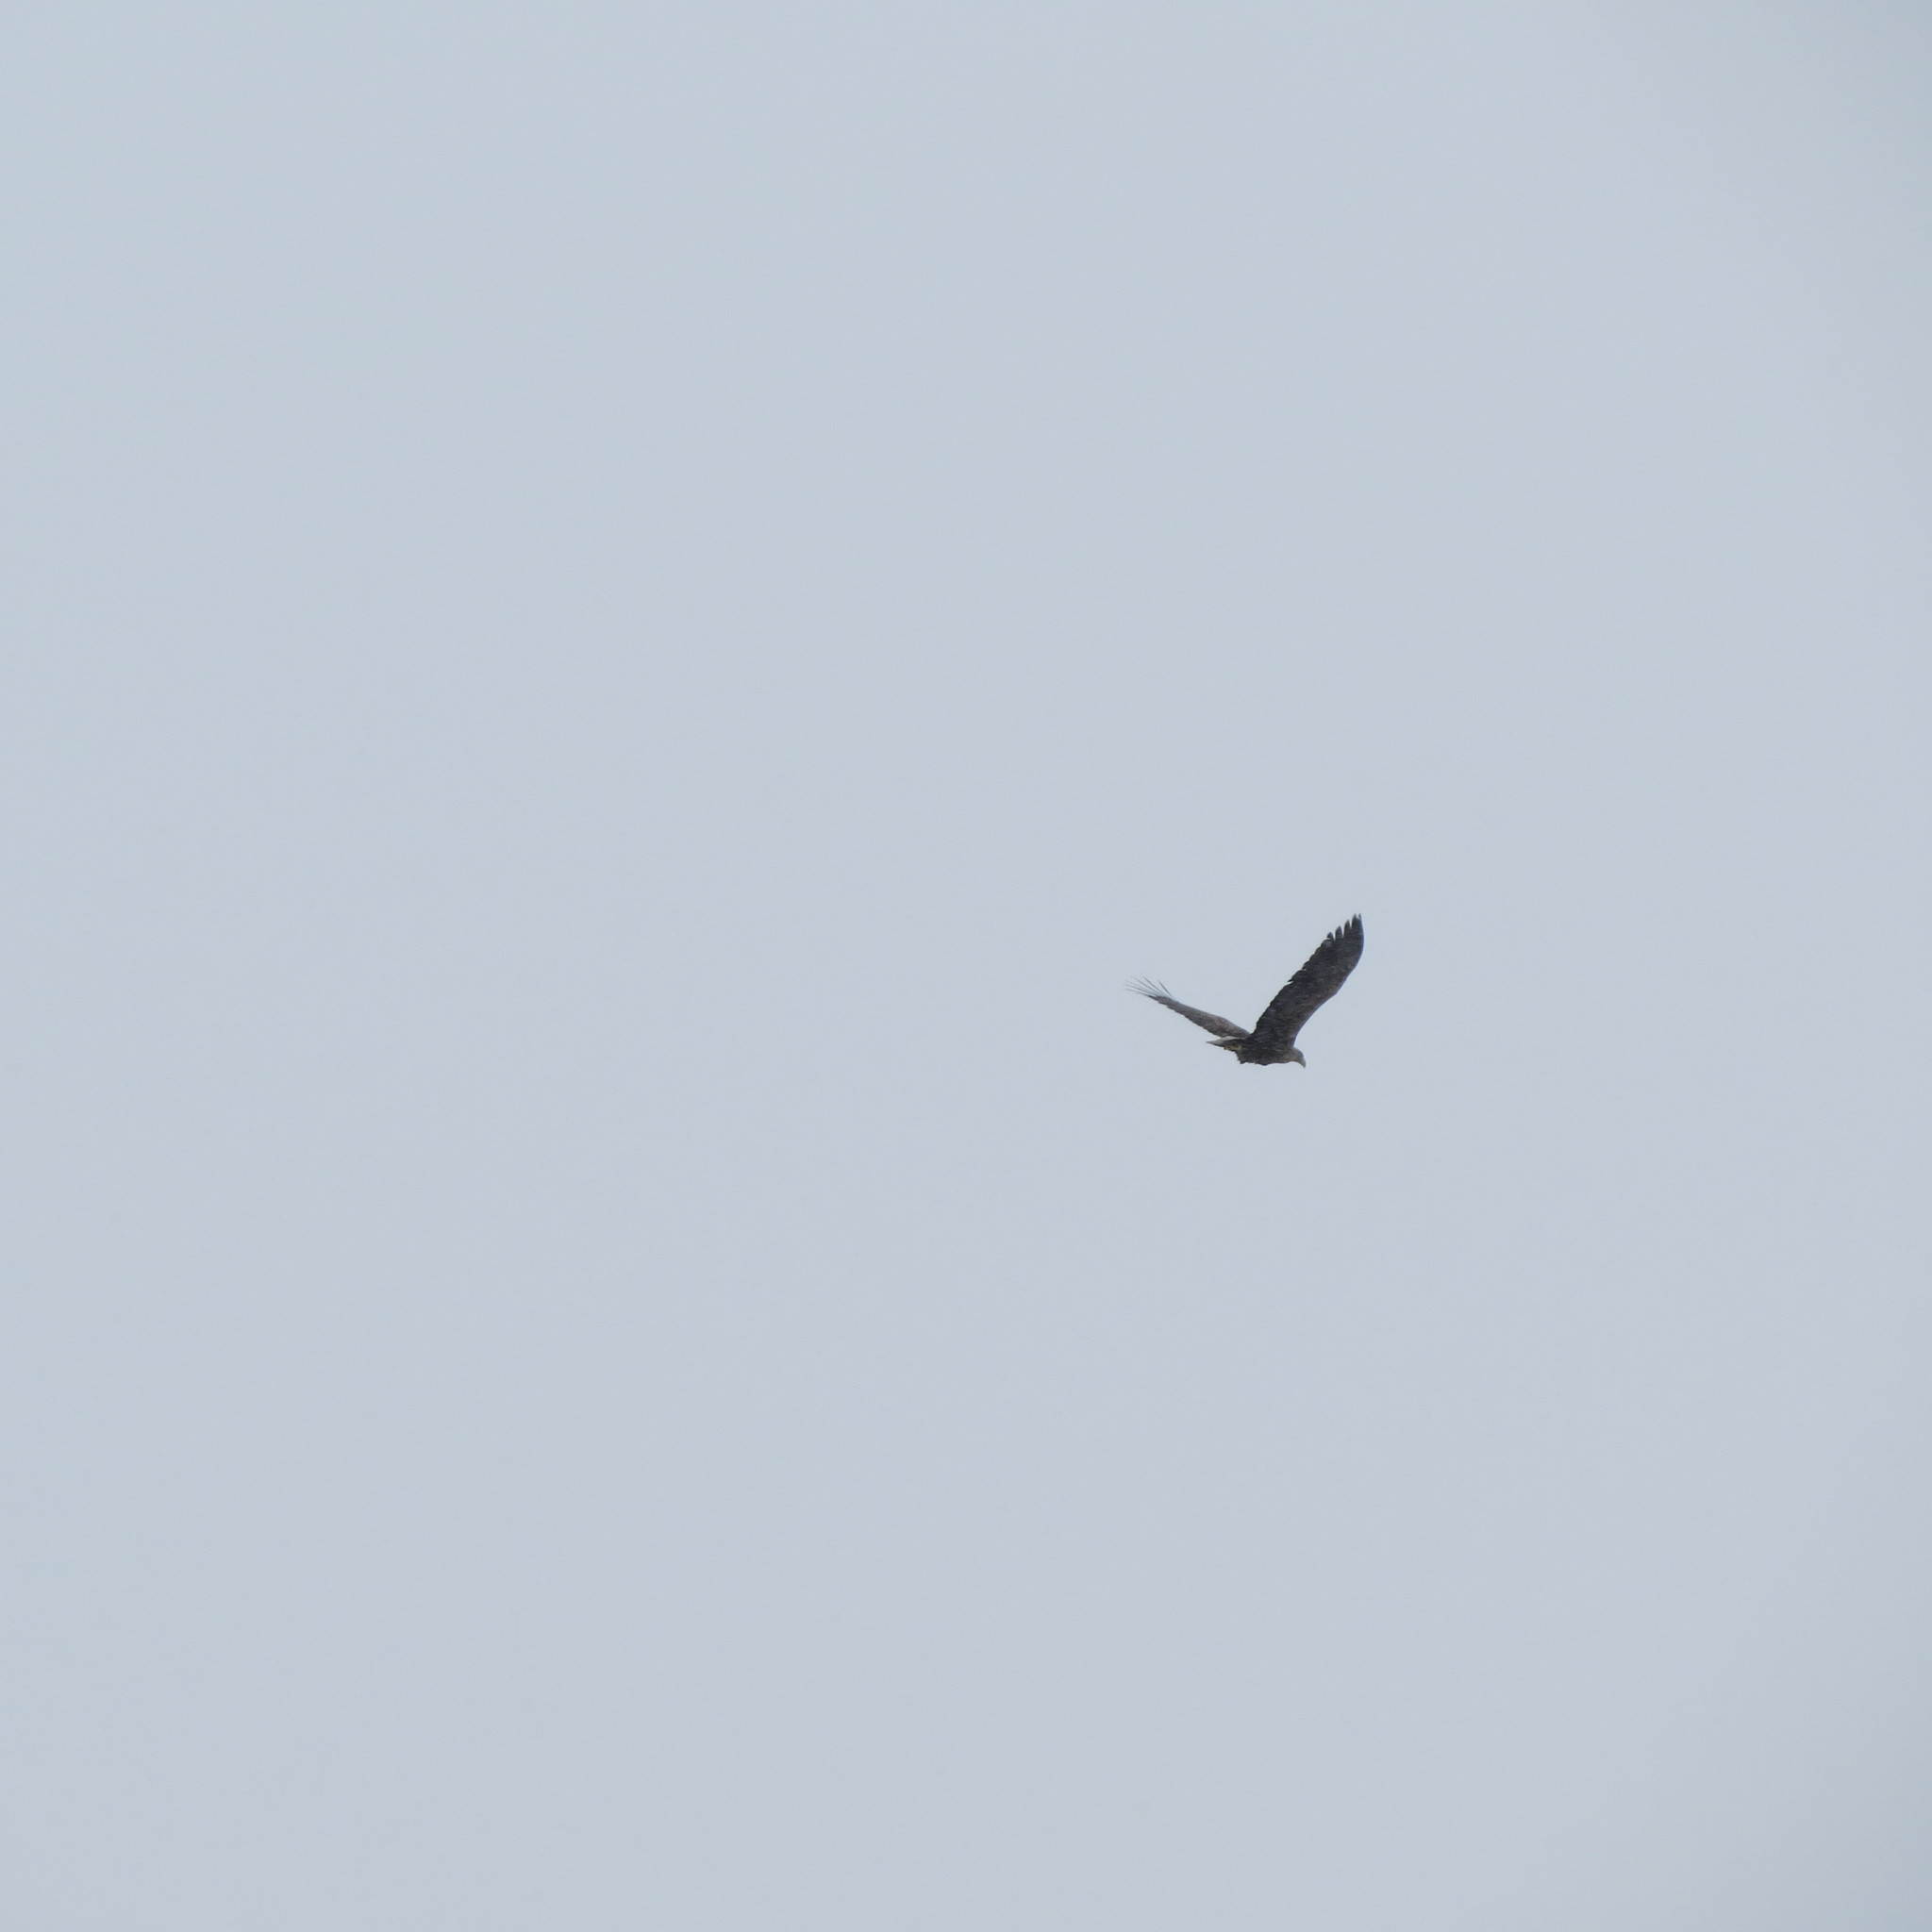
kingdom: Animalia
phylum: Chordata
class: Aves
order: Accipitriformes
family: Accipitridae
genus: Haliaeetus
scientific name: Haliaeetus albicilla
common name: White-tailed eagle
